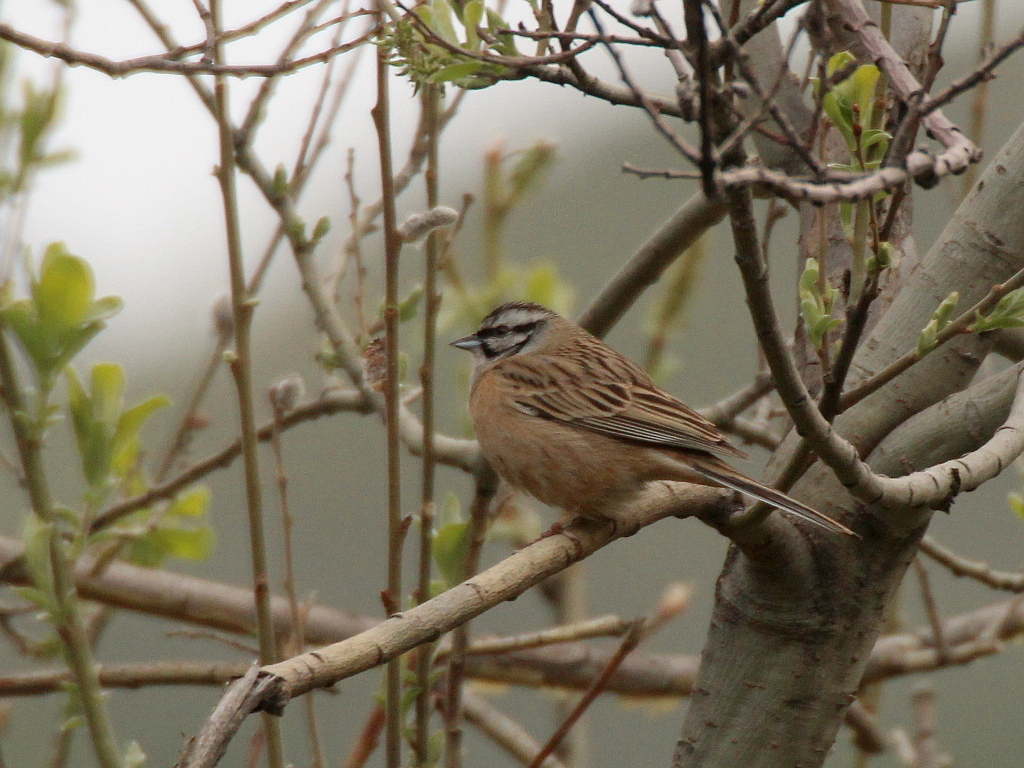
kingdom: Animalia
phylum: Chordata
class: Aves
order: Passeriformes
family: Emberizidae
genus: Emberiza
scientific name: Emberiza cia
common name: Rock bunting
